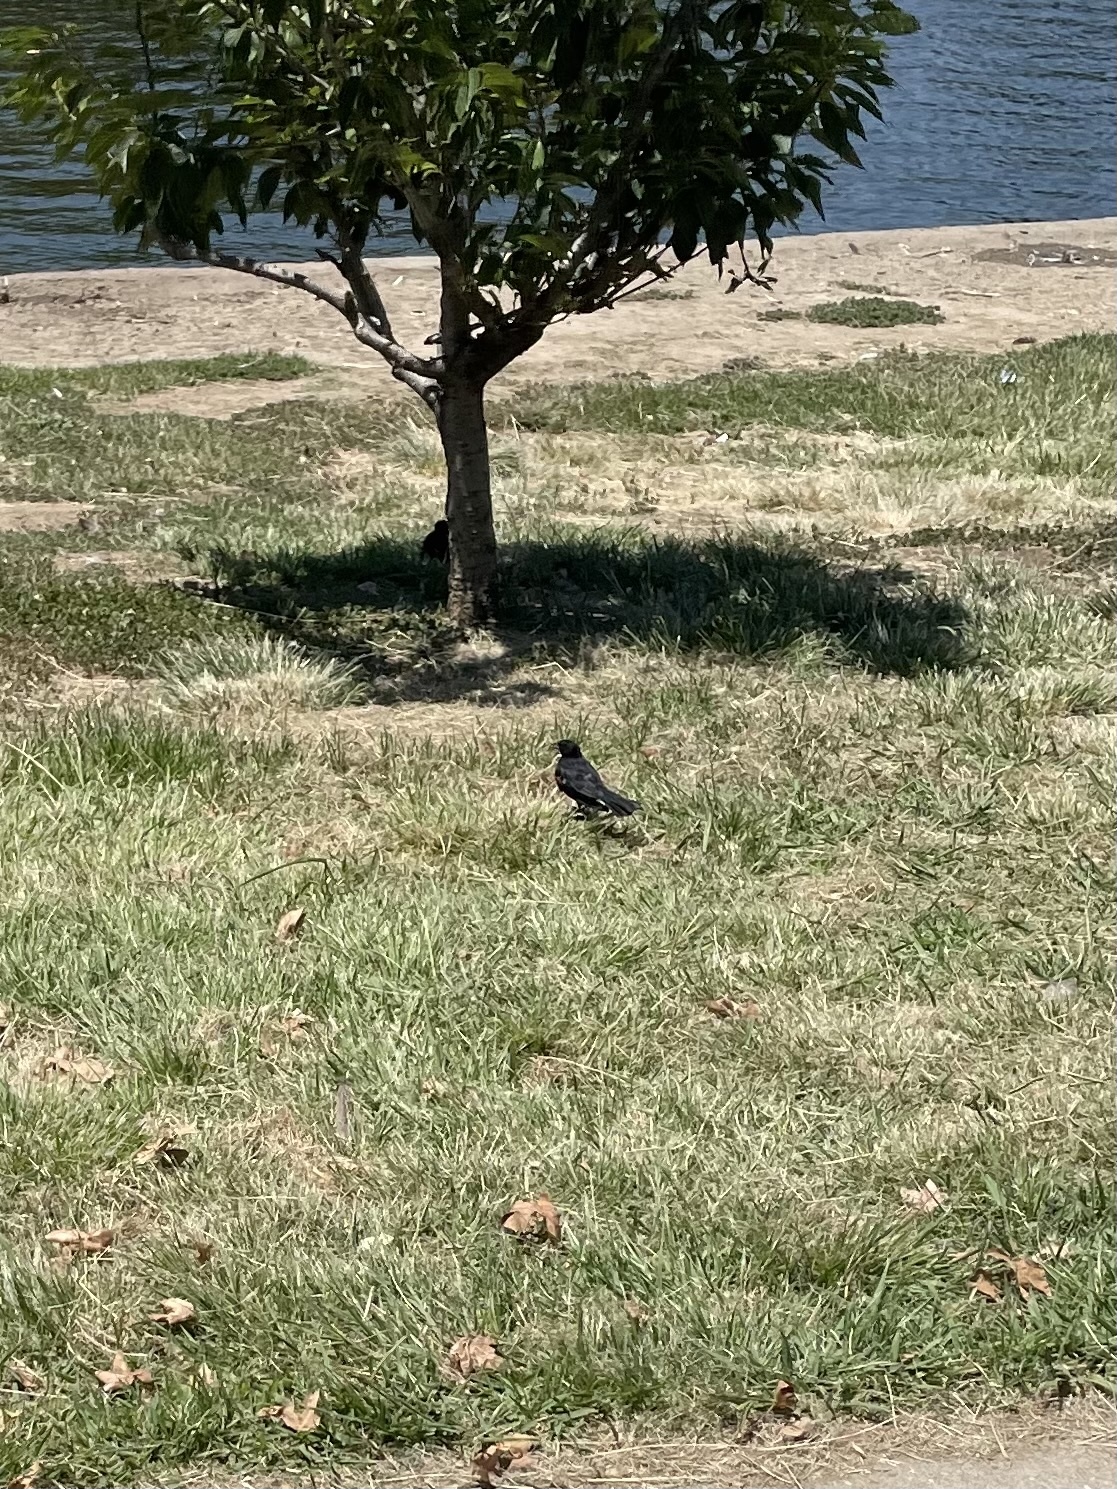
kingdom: Animalia
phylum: Chordata
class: Aves
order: Passeriformes
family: Icteridae
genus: Agelaius
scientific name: Agelaius phoeniceus
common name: Red-winged blackbird
